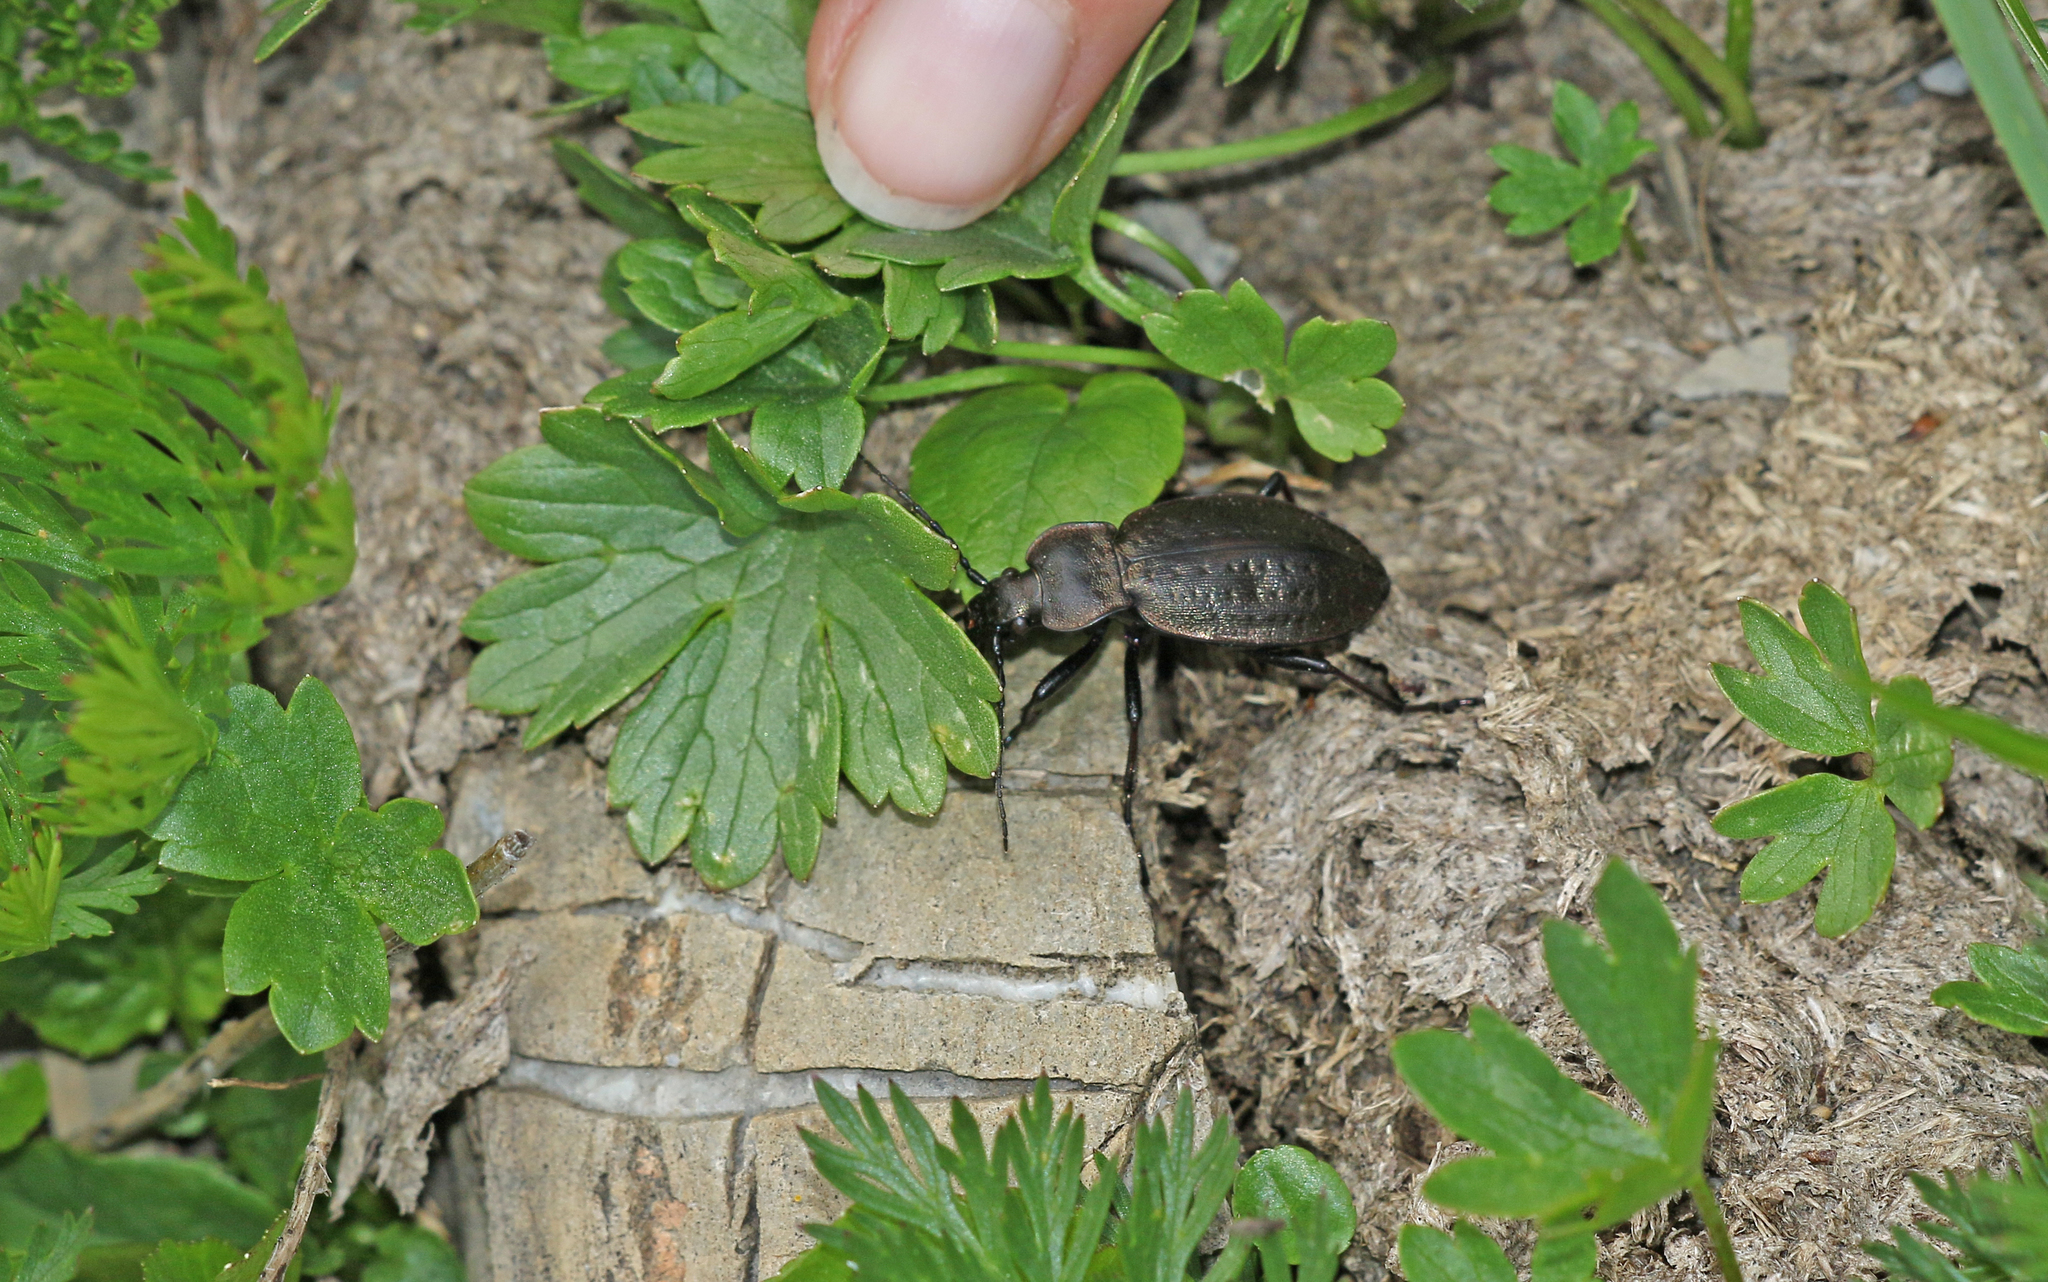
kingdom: Animalia
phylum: Arthropoda
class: Insecta
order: Coleoptera
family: Carabidae
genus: Carabus
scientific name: Carabus sylvestris
